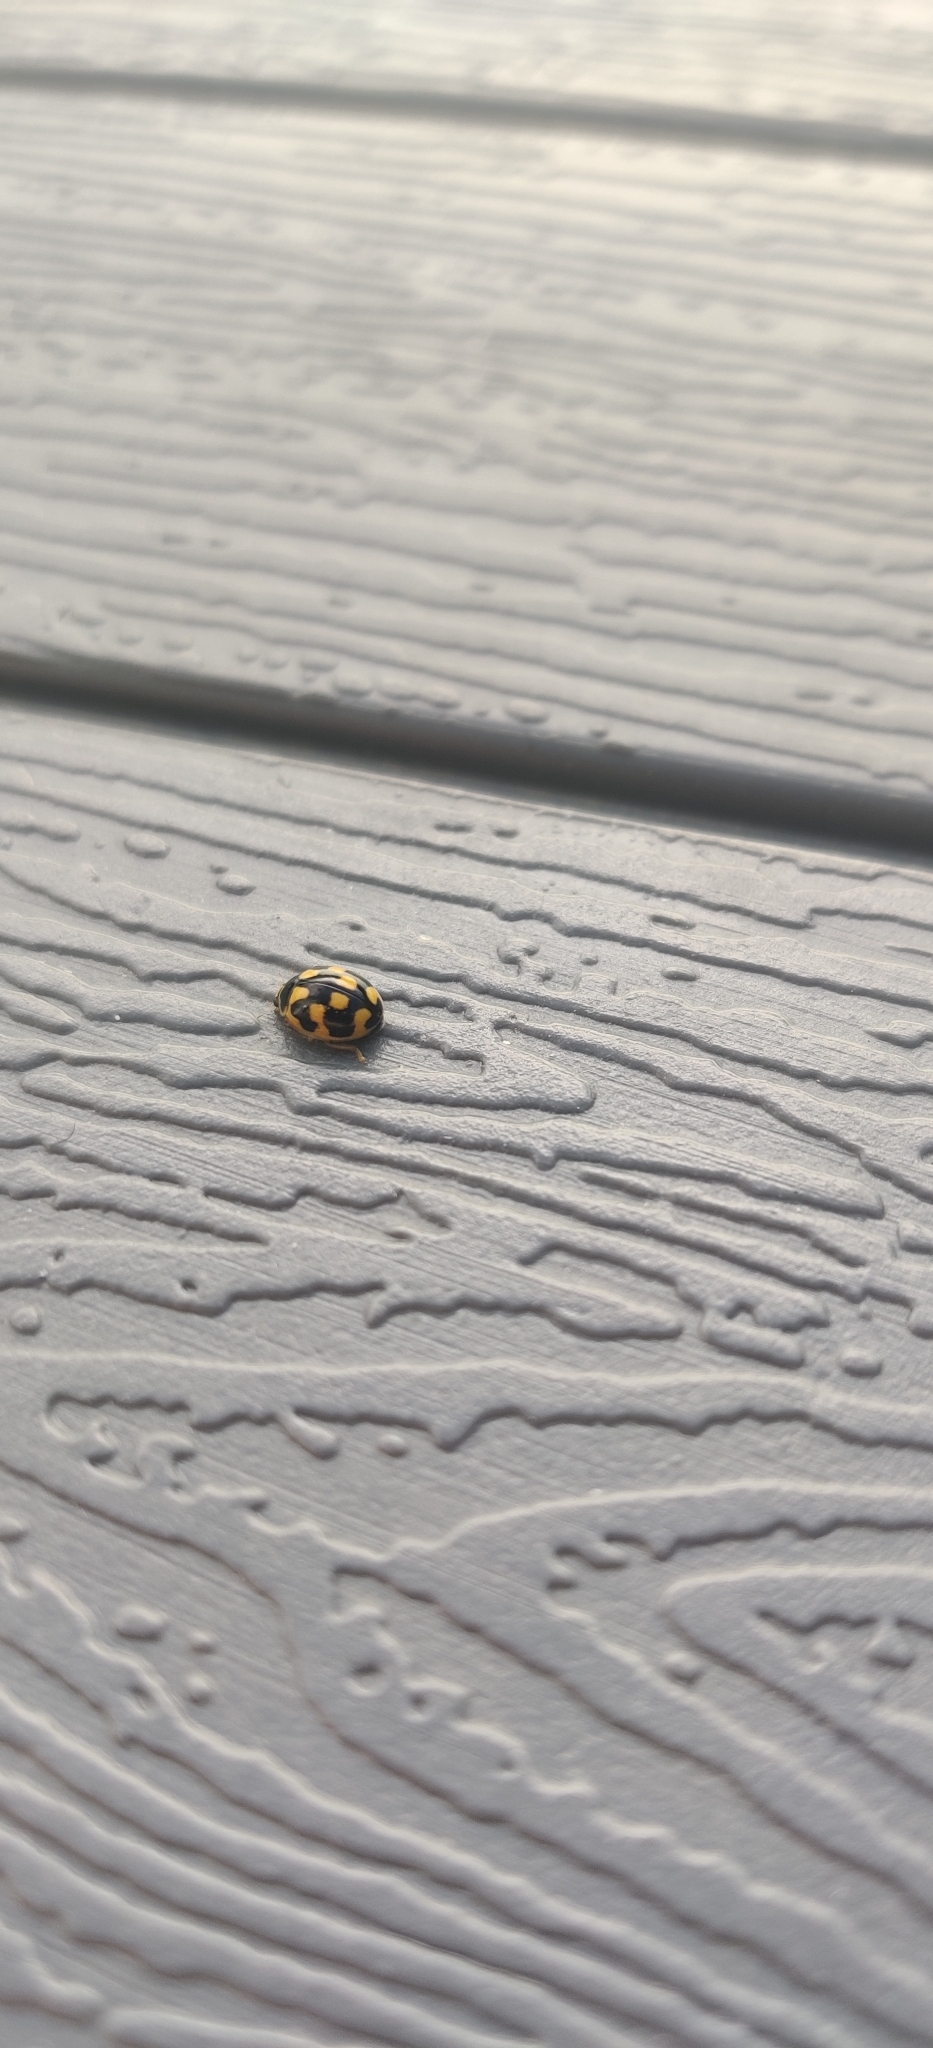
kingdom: Animalia
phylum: Arthropoda
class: Insecta
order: Coleoptera
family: Coccinellidae
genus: Propylaea
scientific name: Propylaea quatuordecimpunctata
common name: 14-spotted ladybird beetle
